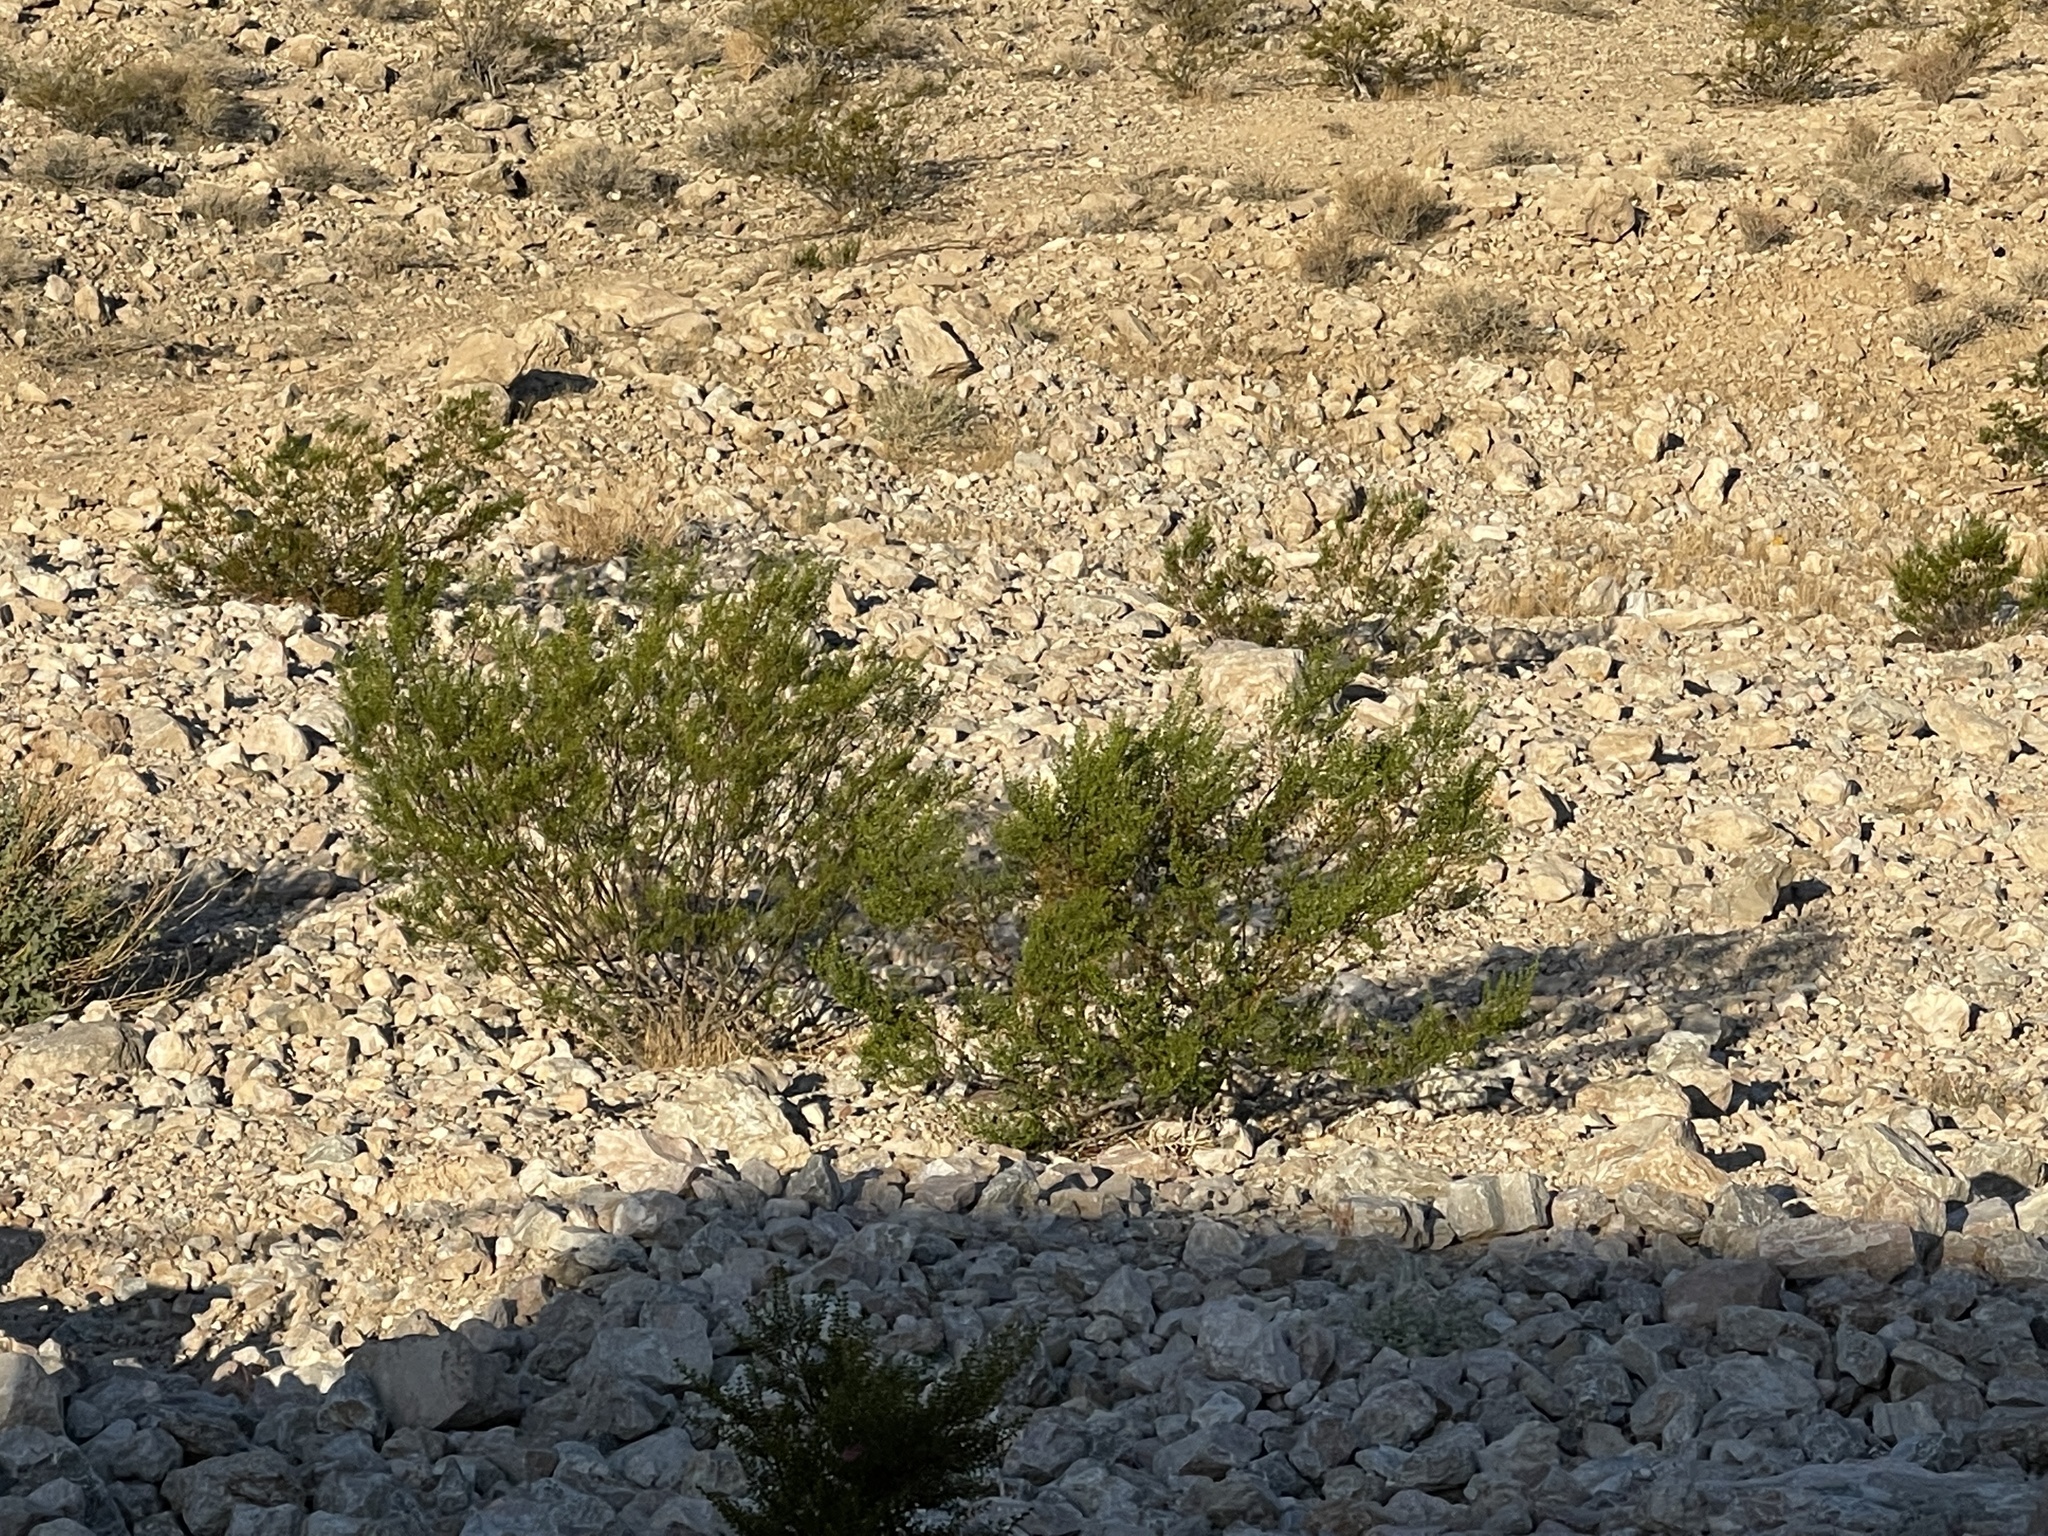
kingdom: Plantae
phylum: Tracheophyta
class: Magnoliopsida
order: Zygophyllales
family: Zygophyllaceae
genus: Larrea
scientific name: Larrea tridentata
